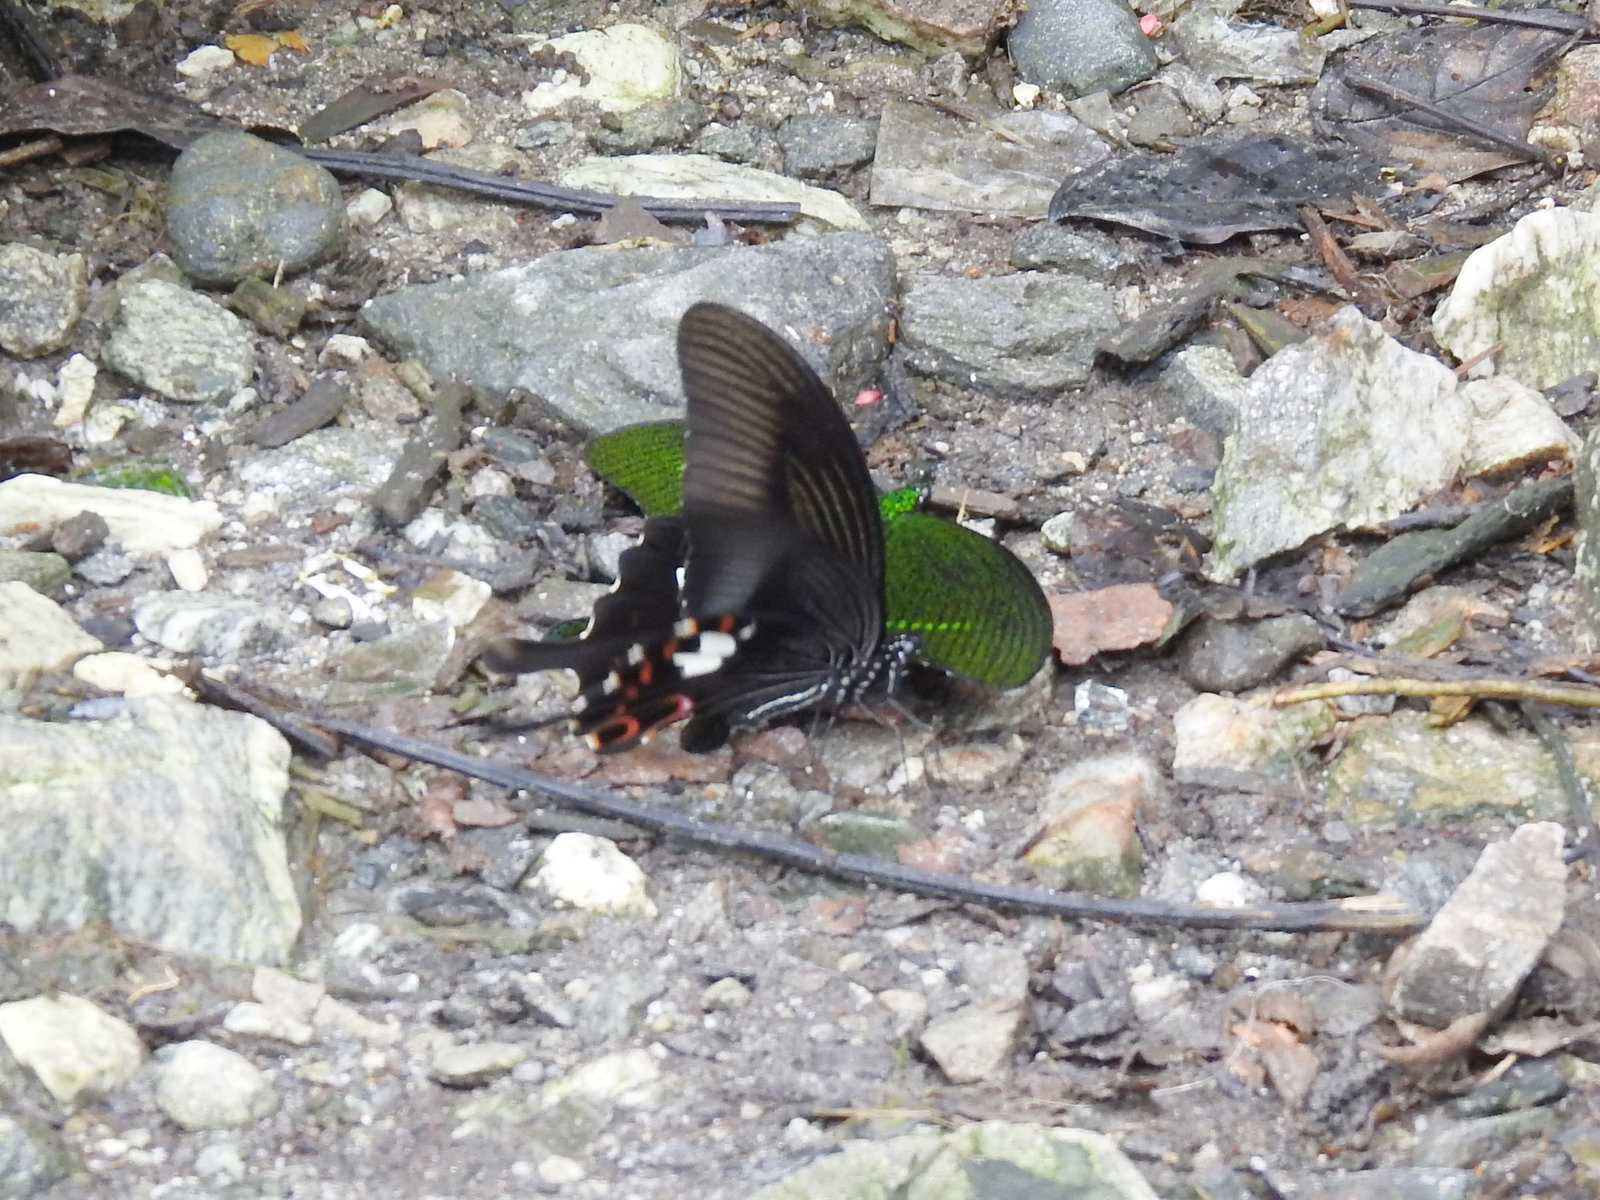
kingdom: Animalia
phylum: Arthropoda
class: Insecta
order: Lepidoptera
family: Papilionidae
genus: Papilio
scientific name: Papilio helenus
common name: Red helen
